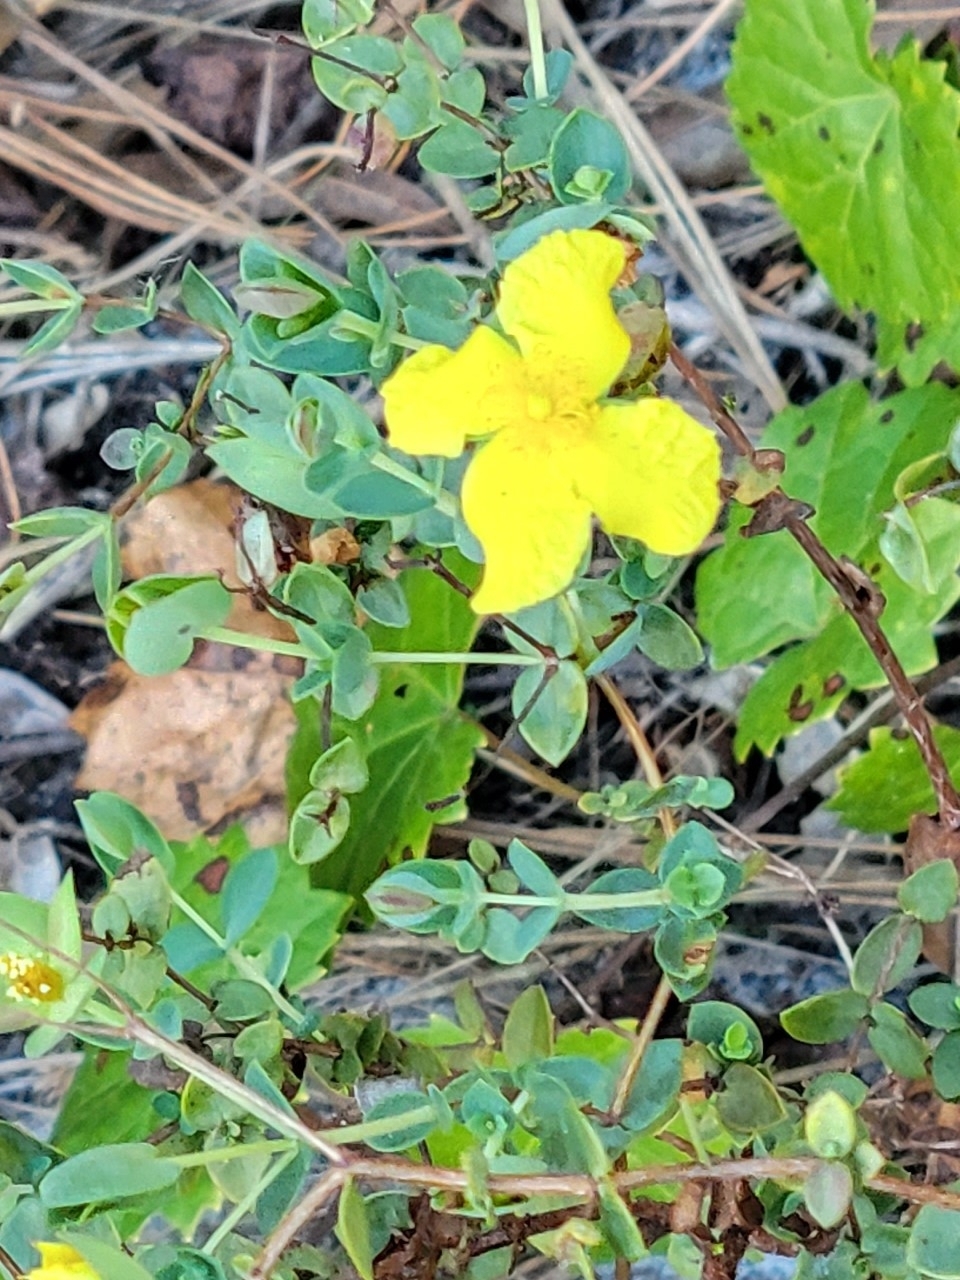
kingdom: Plantae
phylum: Tracheophyta
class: Magnoliopsida
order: Malpighiales
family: Hypericaceae
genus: Hypericum
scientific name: Hypericum tetrapetalum
